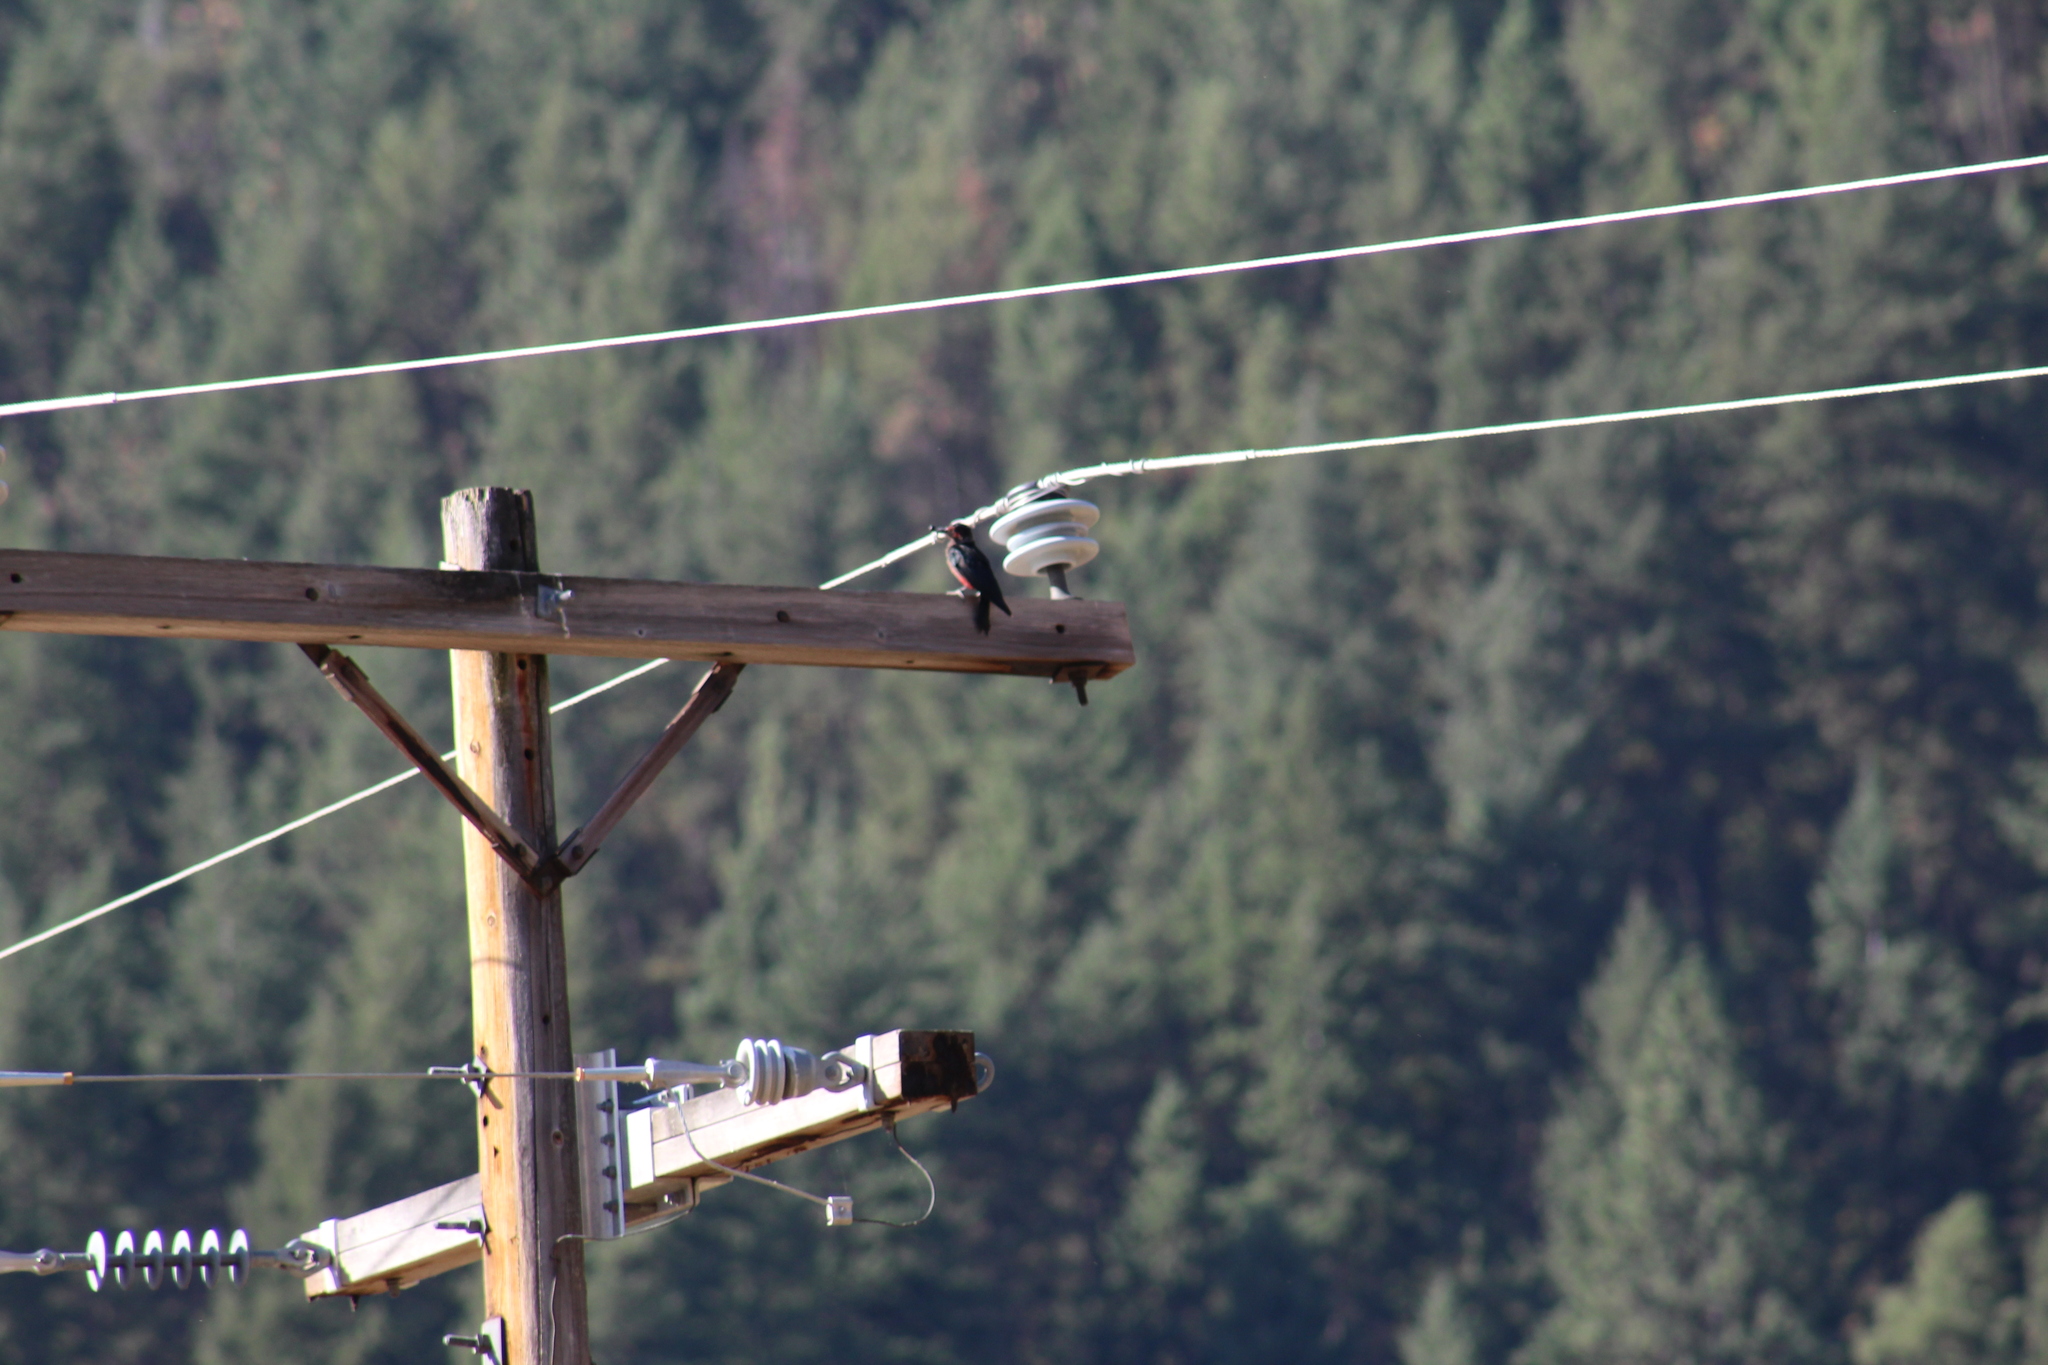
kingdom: Animalia
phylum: Chordata
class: Aves
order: Piciformes
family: Picidae
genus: Melanerpes
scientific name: Melanerpes lewis
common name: Lewis's woodpecker
